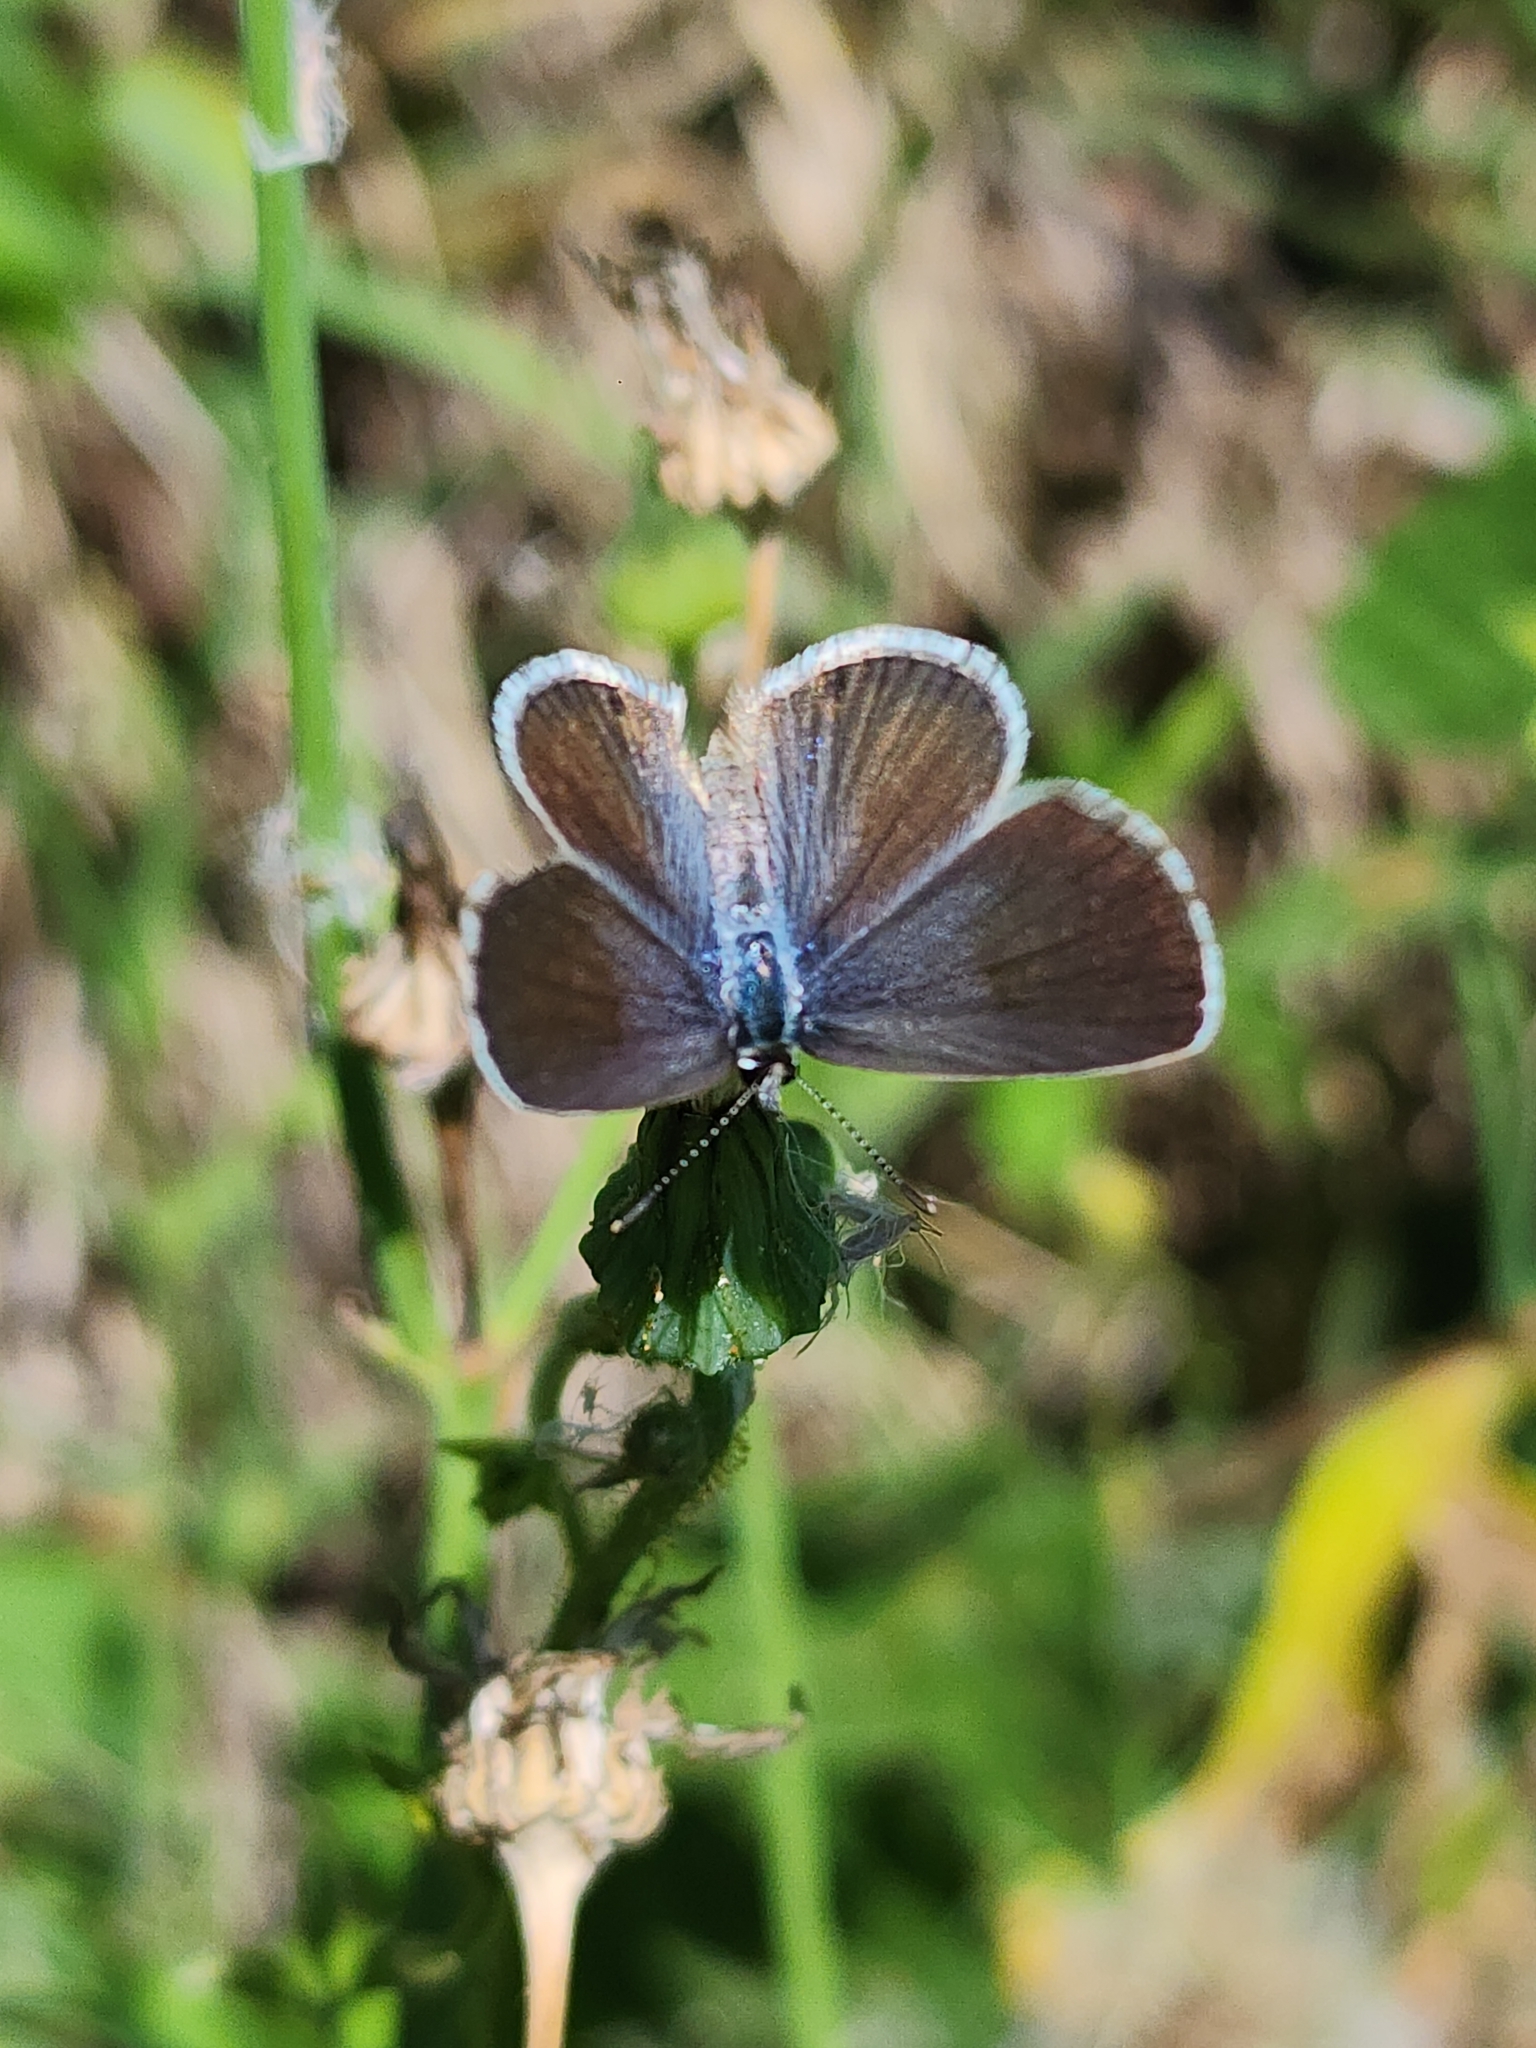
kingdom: Animalia
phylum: Arthropoda
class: Insecta
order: Lepidoptera
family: Lycaenidae
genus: Hemiargus
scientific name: Hemiargus hanno
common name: Common blue
